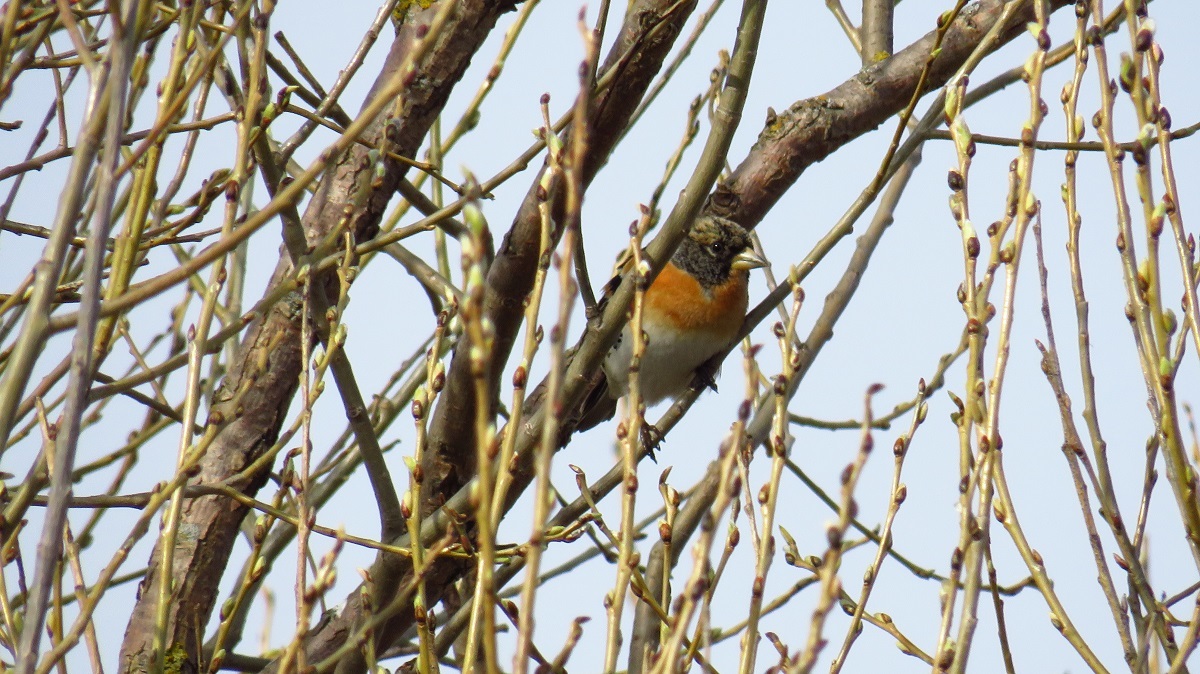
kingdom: Animalia
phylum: Chordata
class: Aves
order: Passeriformes
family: Fringillidae
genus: Fringilla
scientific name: Fringilla montifringilla
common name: Brambling
